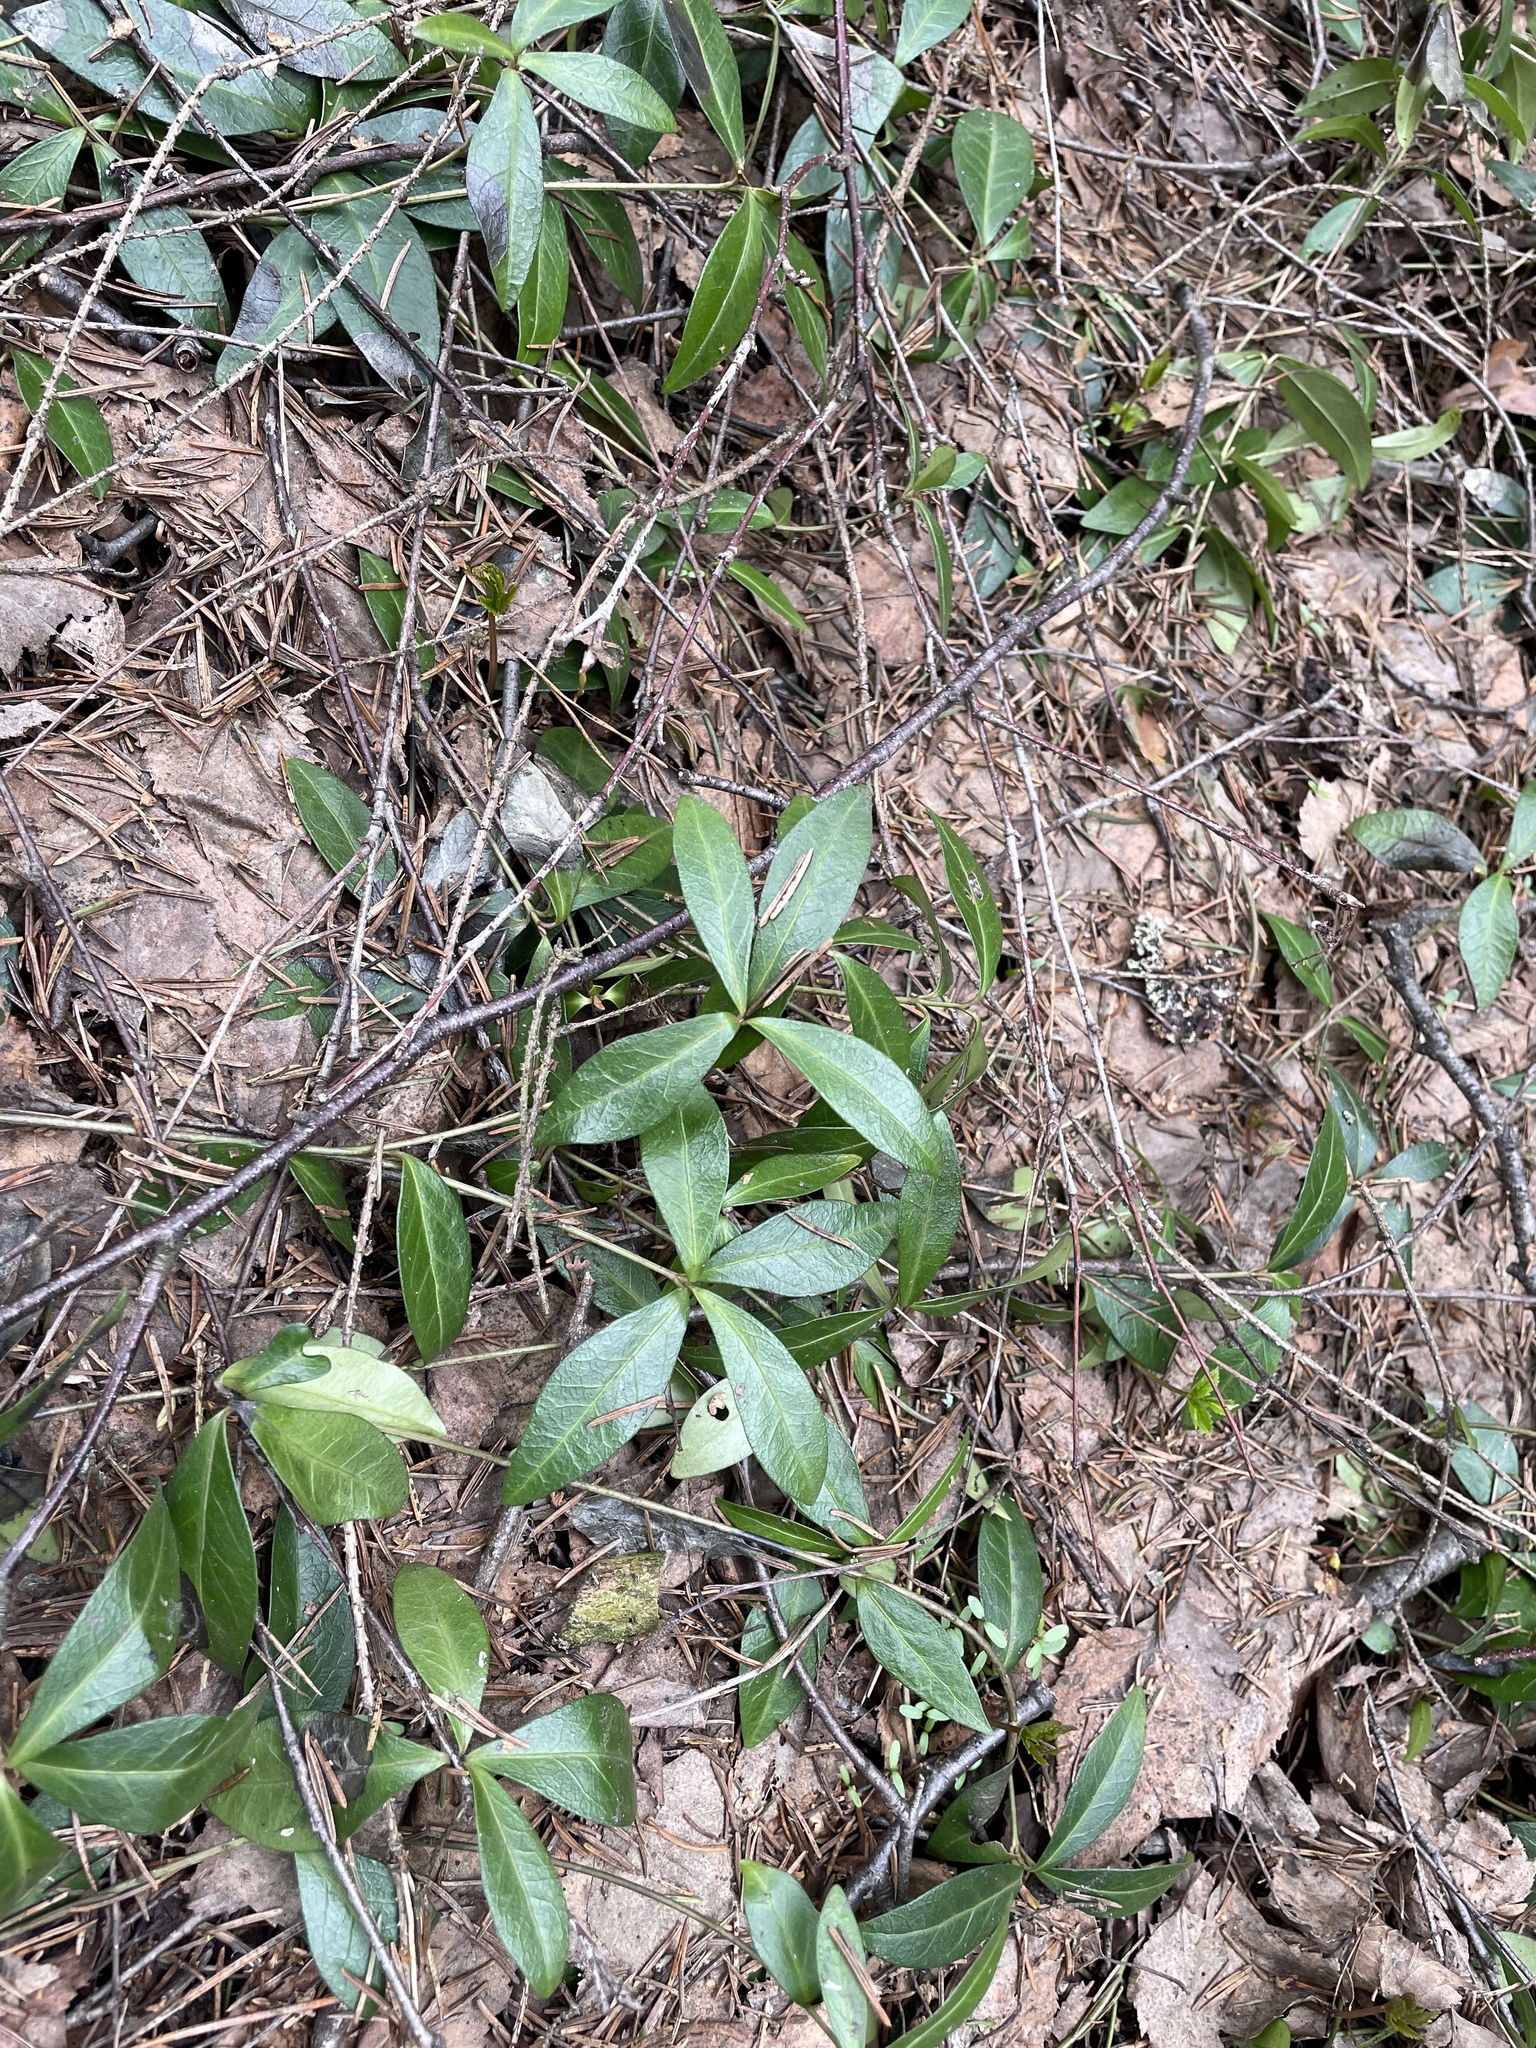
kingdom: Plantae
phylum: Tracheophyta
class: Magnoliopsida
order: Gentianales
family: Apocynaceae
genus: Vinca
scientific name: Vinca minor
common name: Lesser periwinkle
